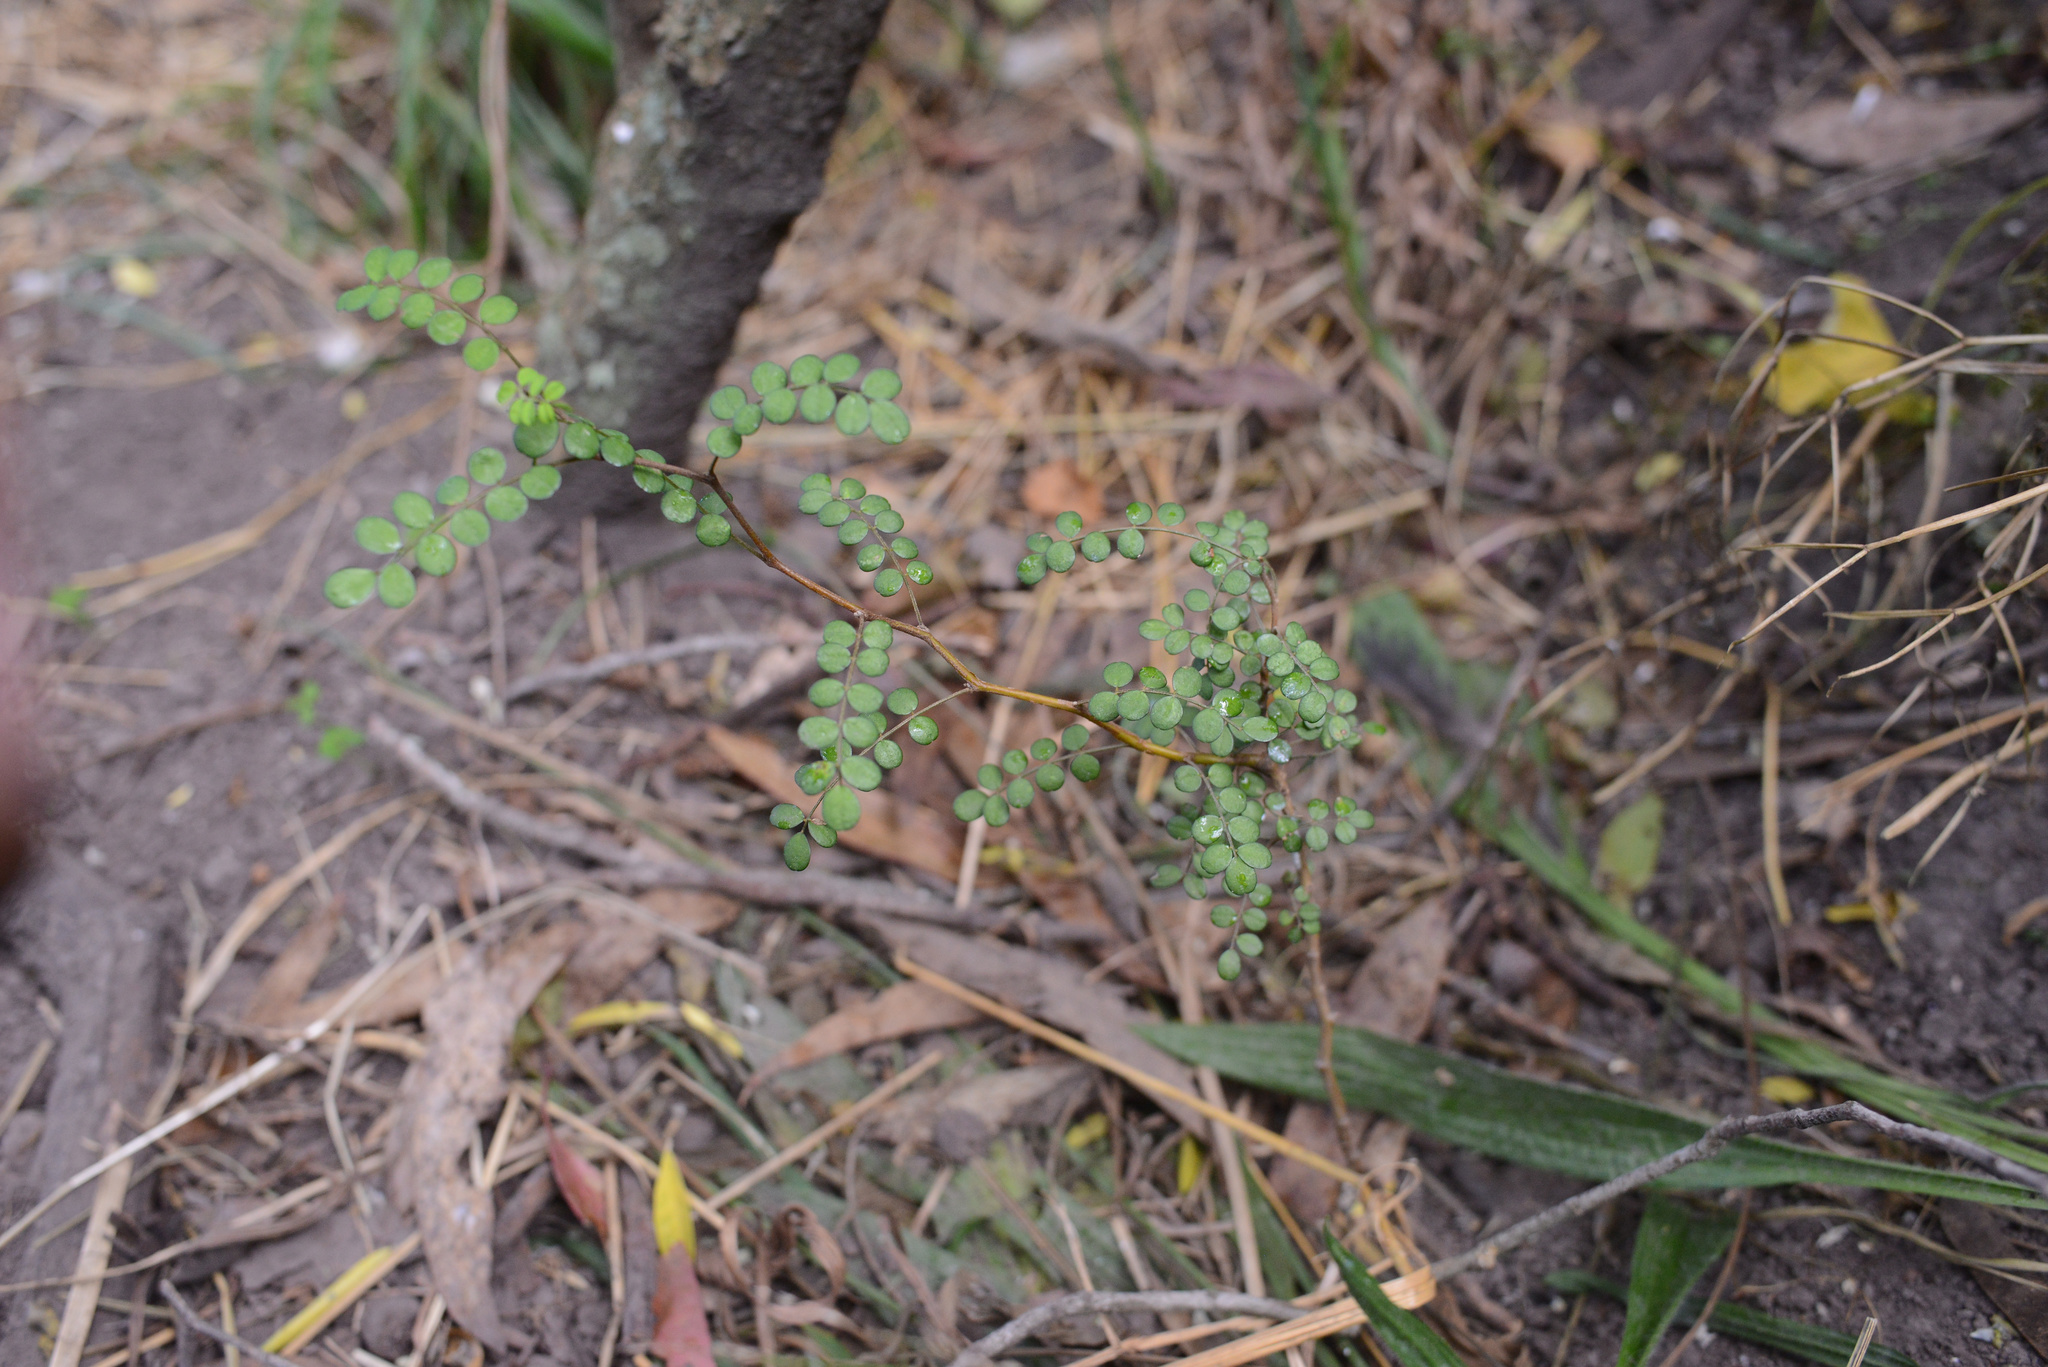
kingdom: Plantae
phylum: Tracheophyta
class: Magnoliopsida
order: Fabales
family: Fabaceae
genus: Sophora
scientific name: Sophora microphylla
